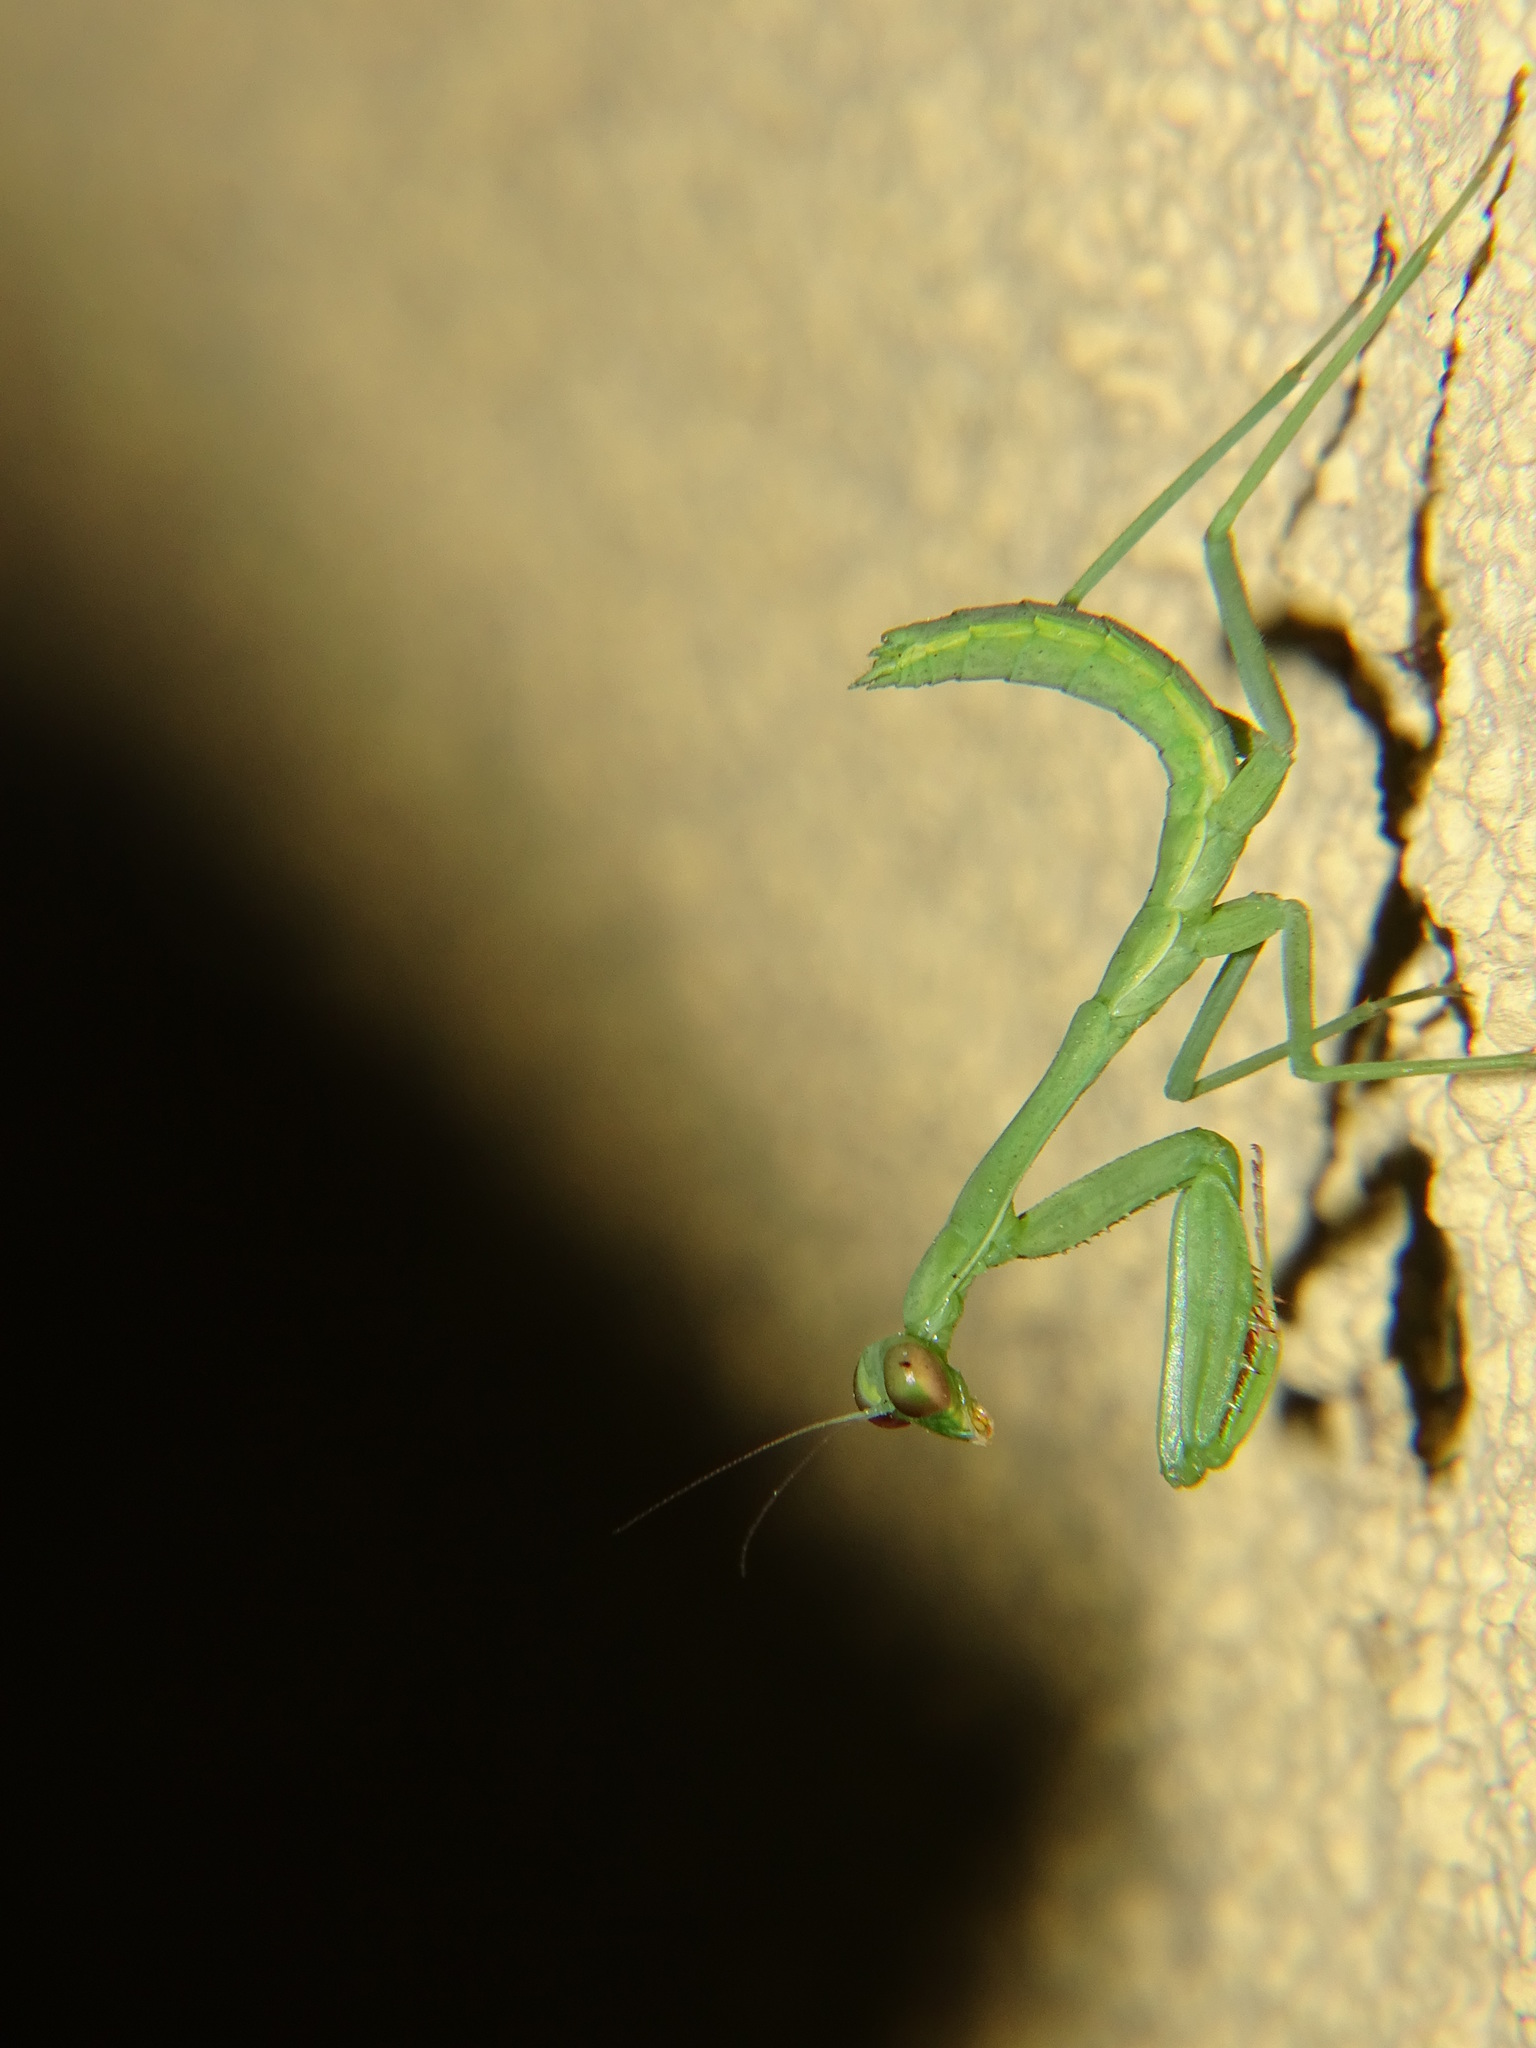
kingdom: Animalia
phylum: Arthropoda
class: Insecta
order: Mantodea
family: Mantidae
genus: Stagmomantis
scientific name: Stagmomantis limbata
